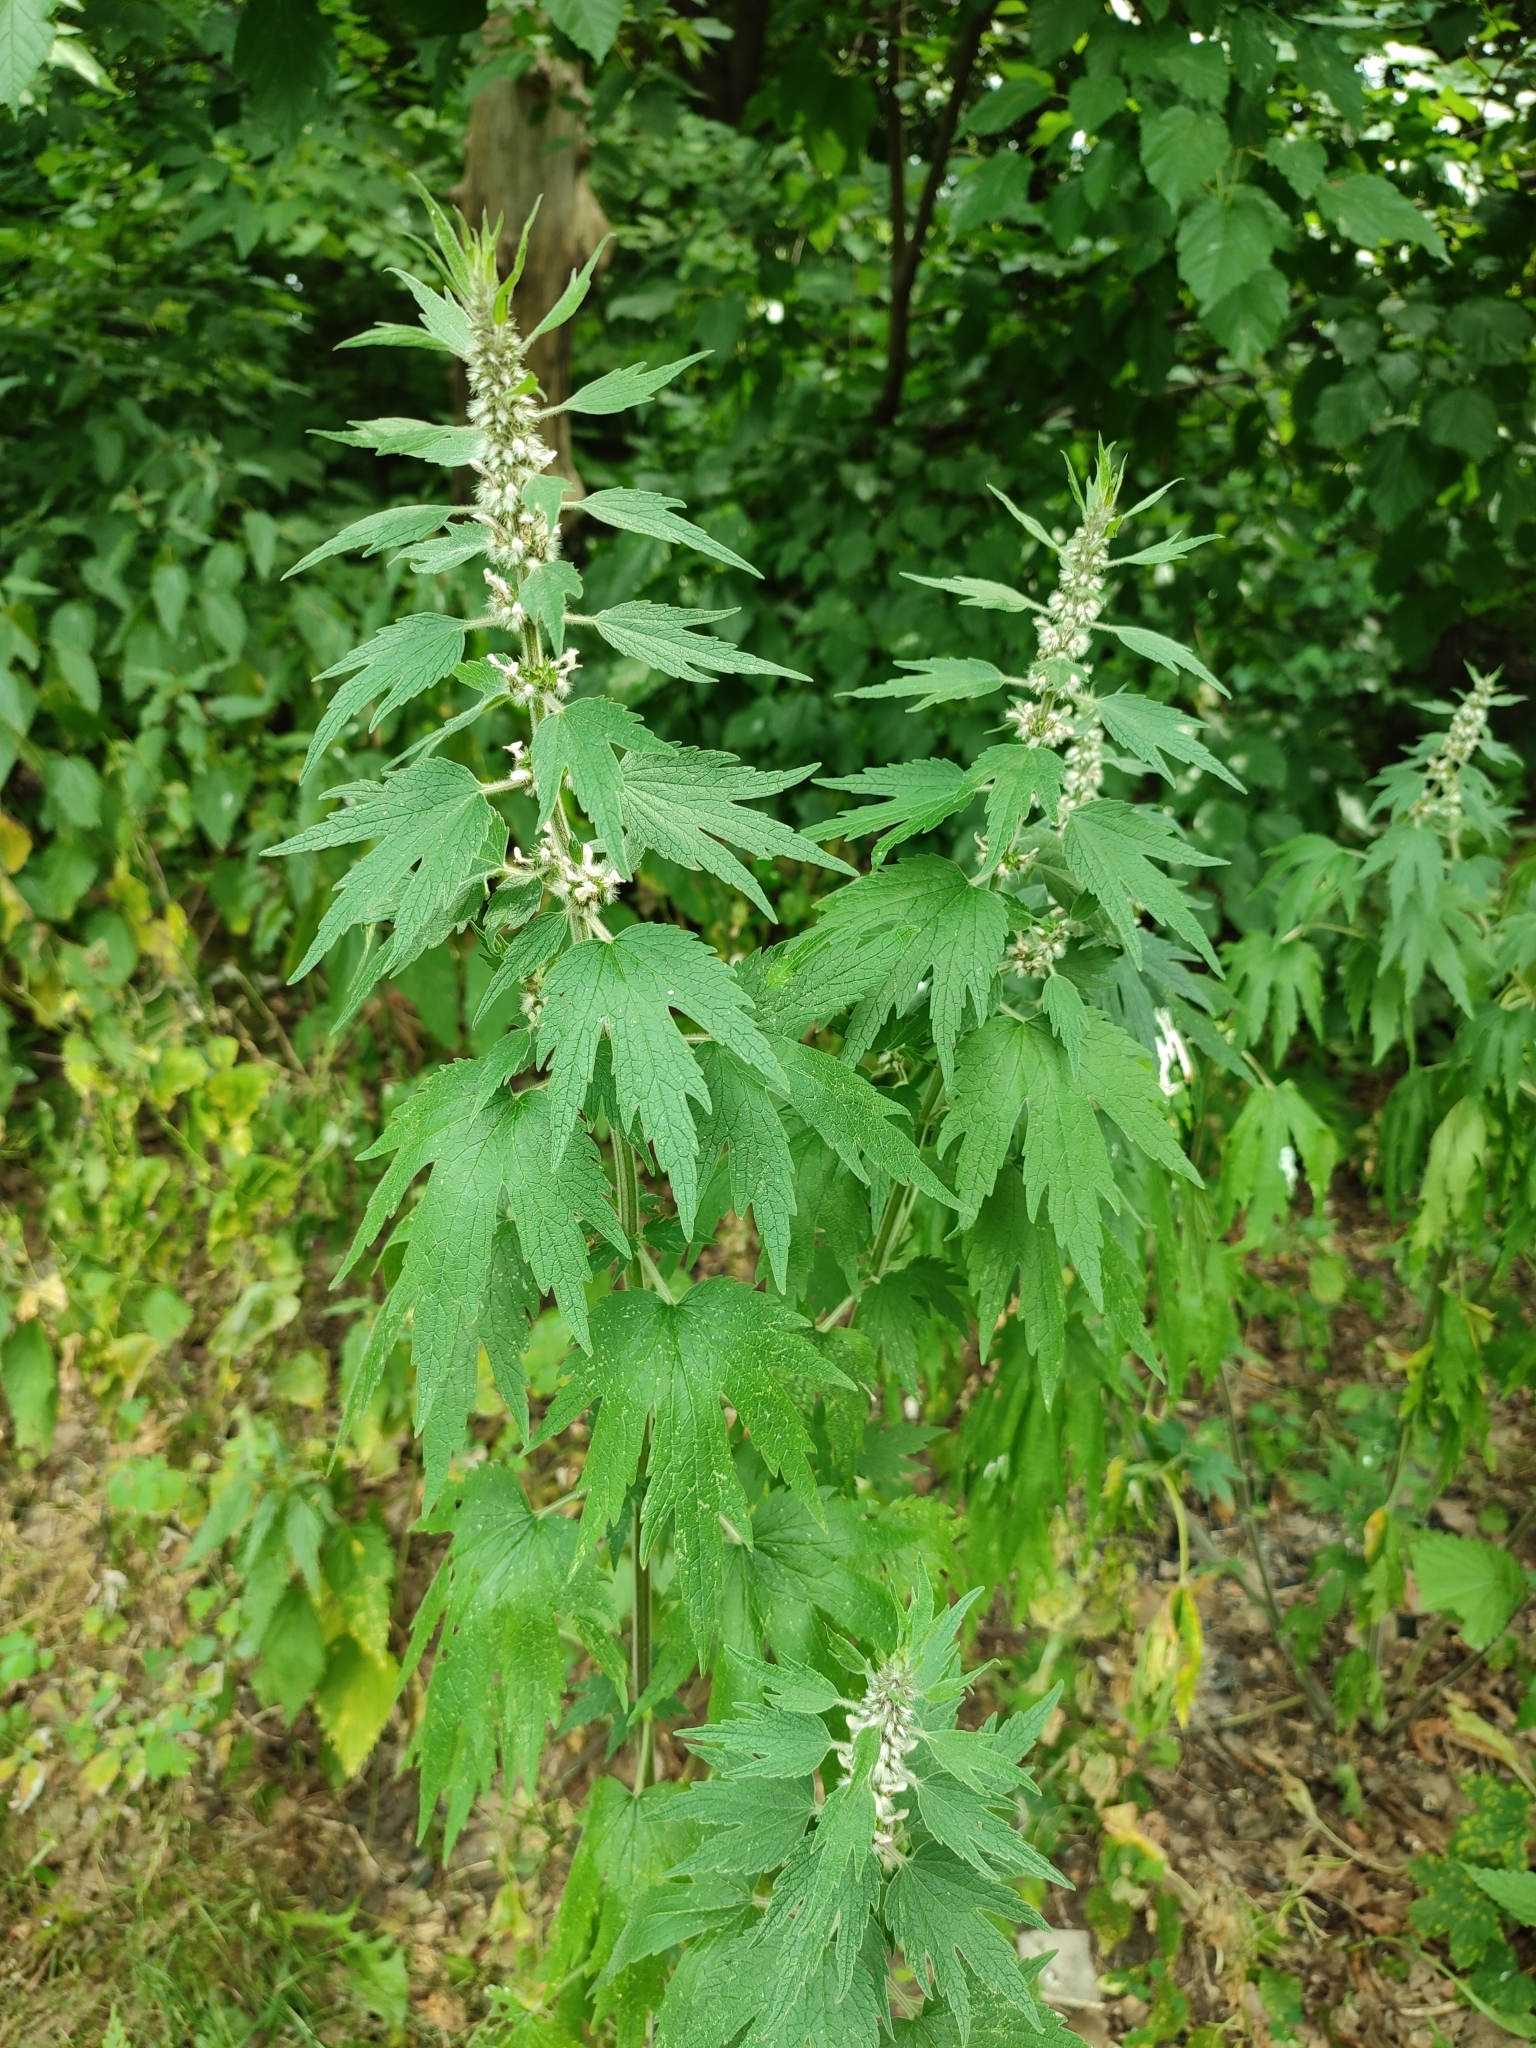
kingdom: Plantae
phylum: Tracheophyta
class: Magnoliopsida
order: Lamiales
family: Lamiaceae
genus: Leonurus
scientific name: Leonurus quinquelobatus
